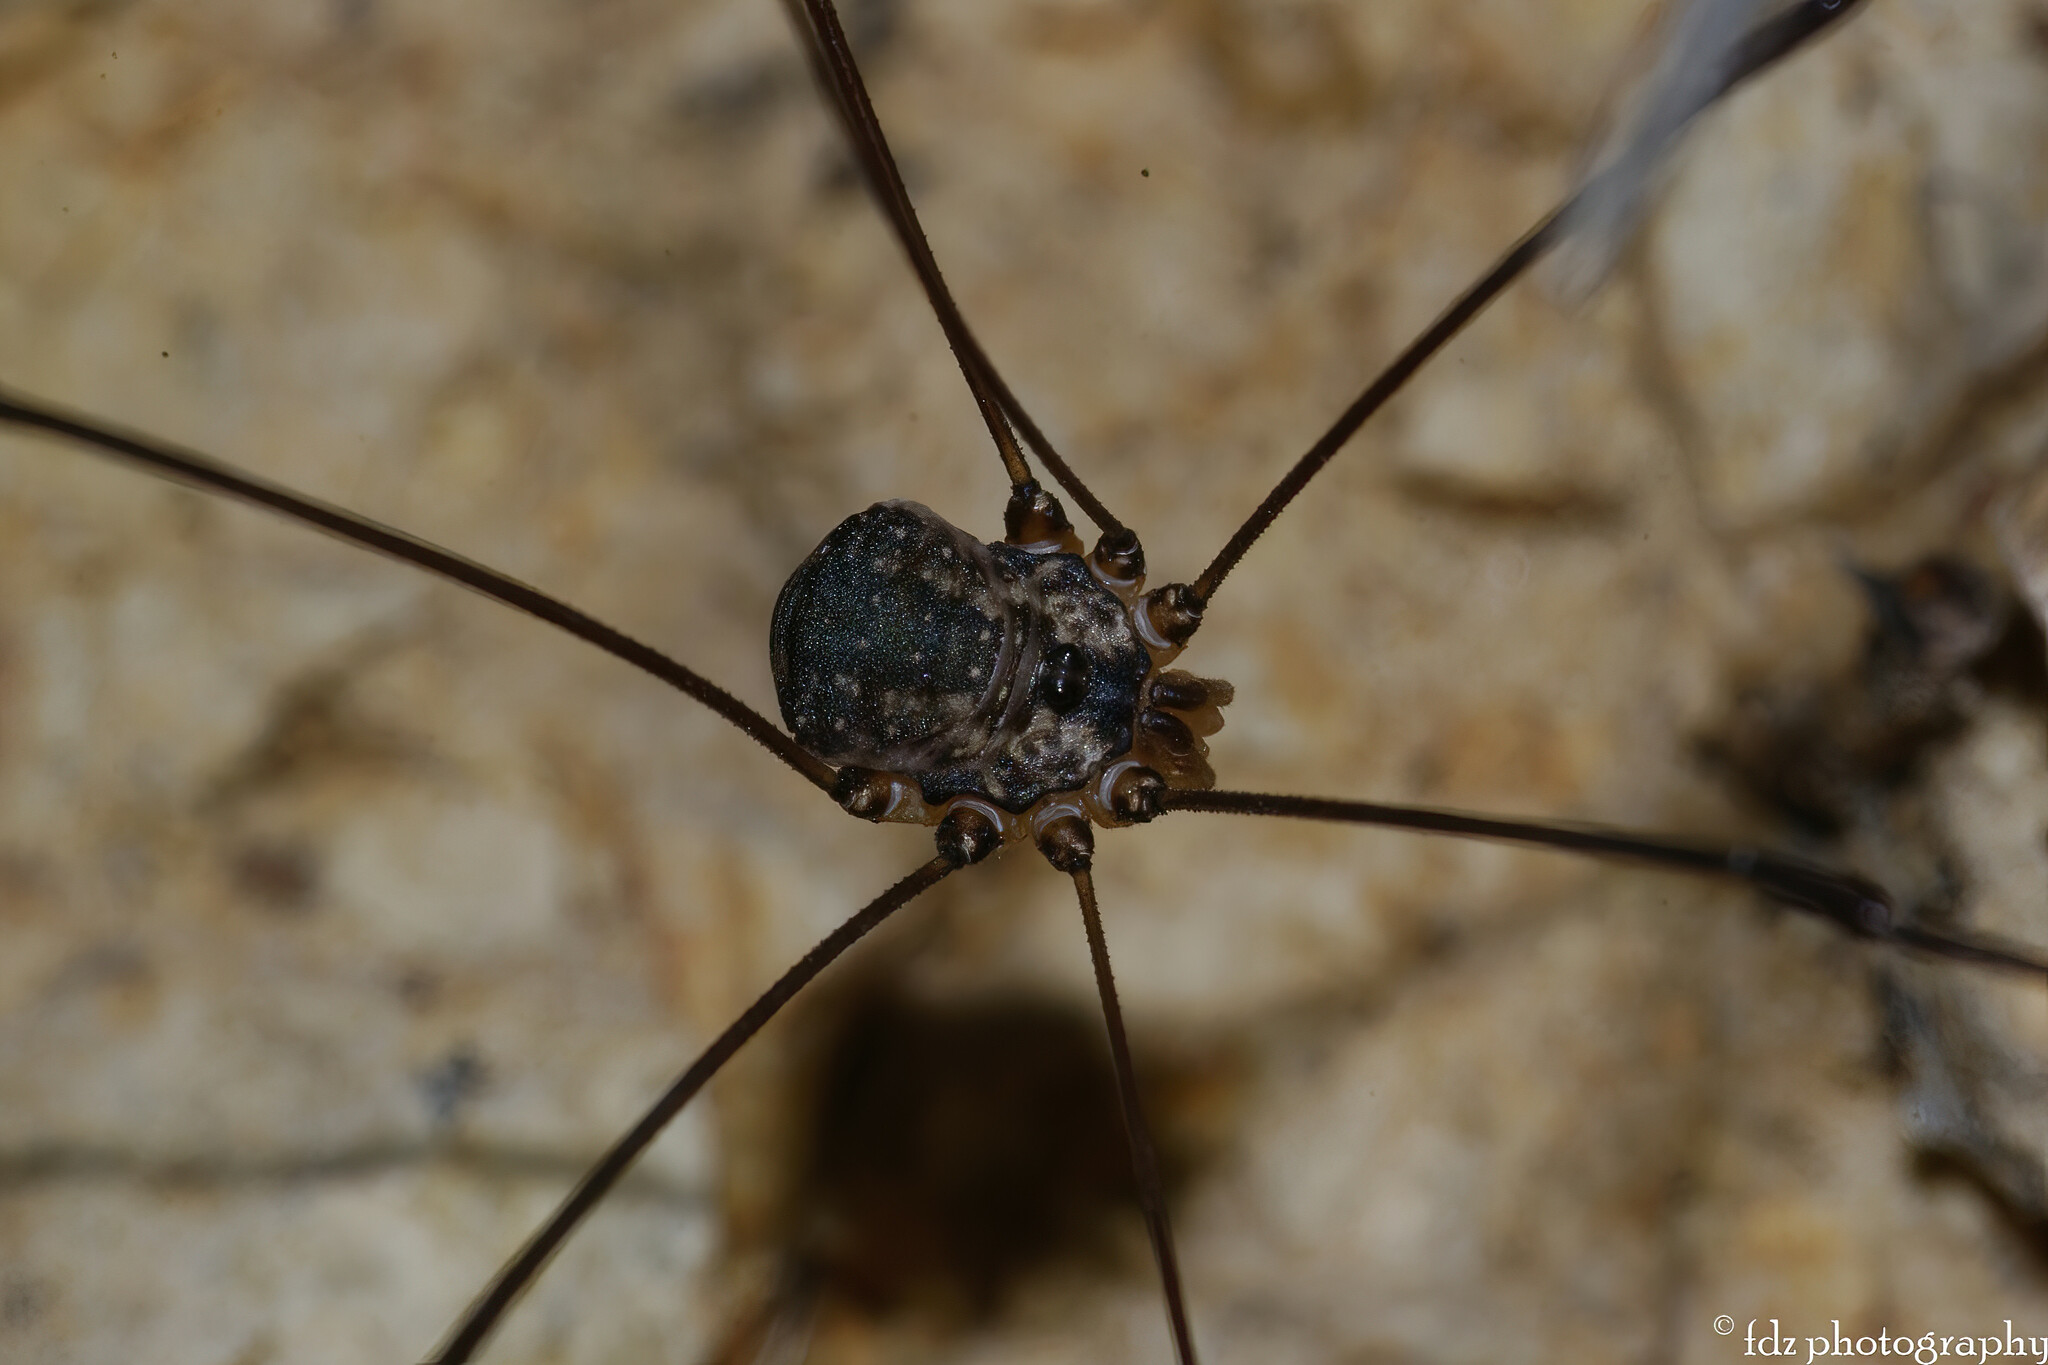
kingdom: Animalia
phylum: Arthropoda
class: Arachnida
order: Opiliones
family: Sclerosomatidae
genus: Leiobunum
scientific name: Leiobunum defectivum
